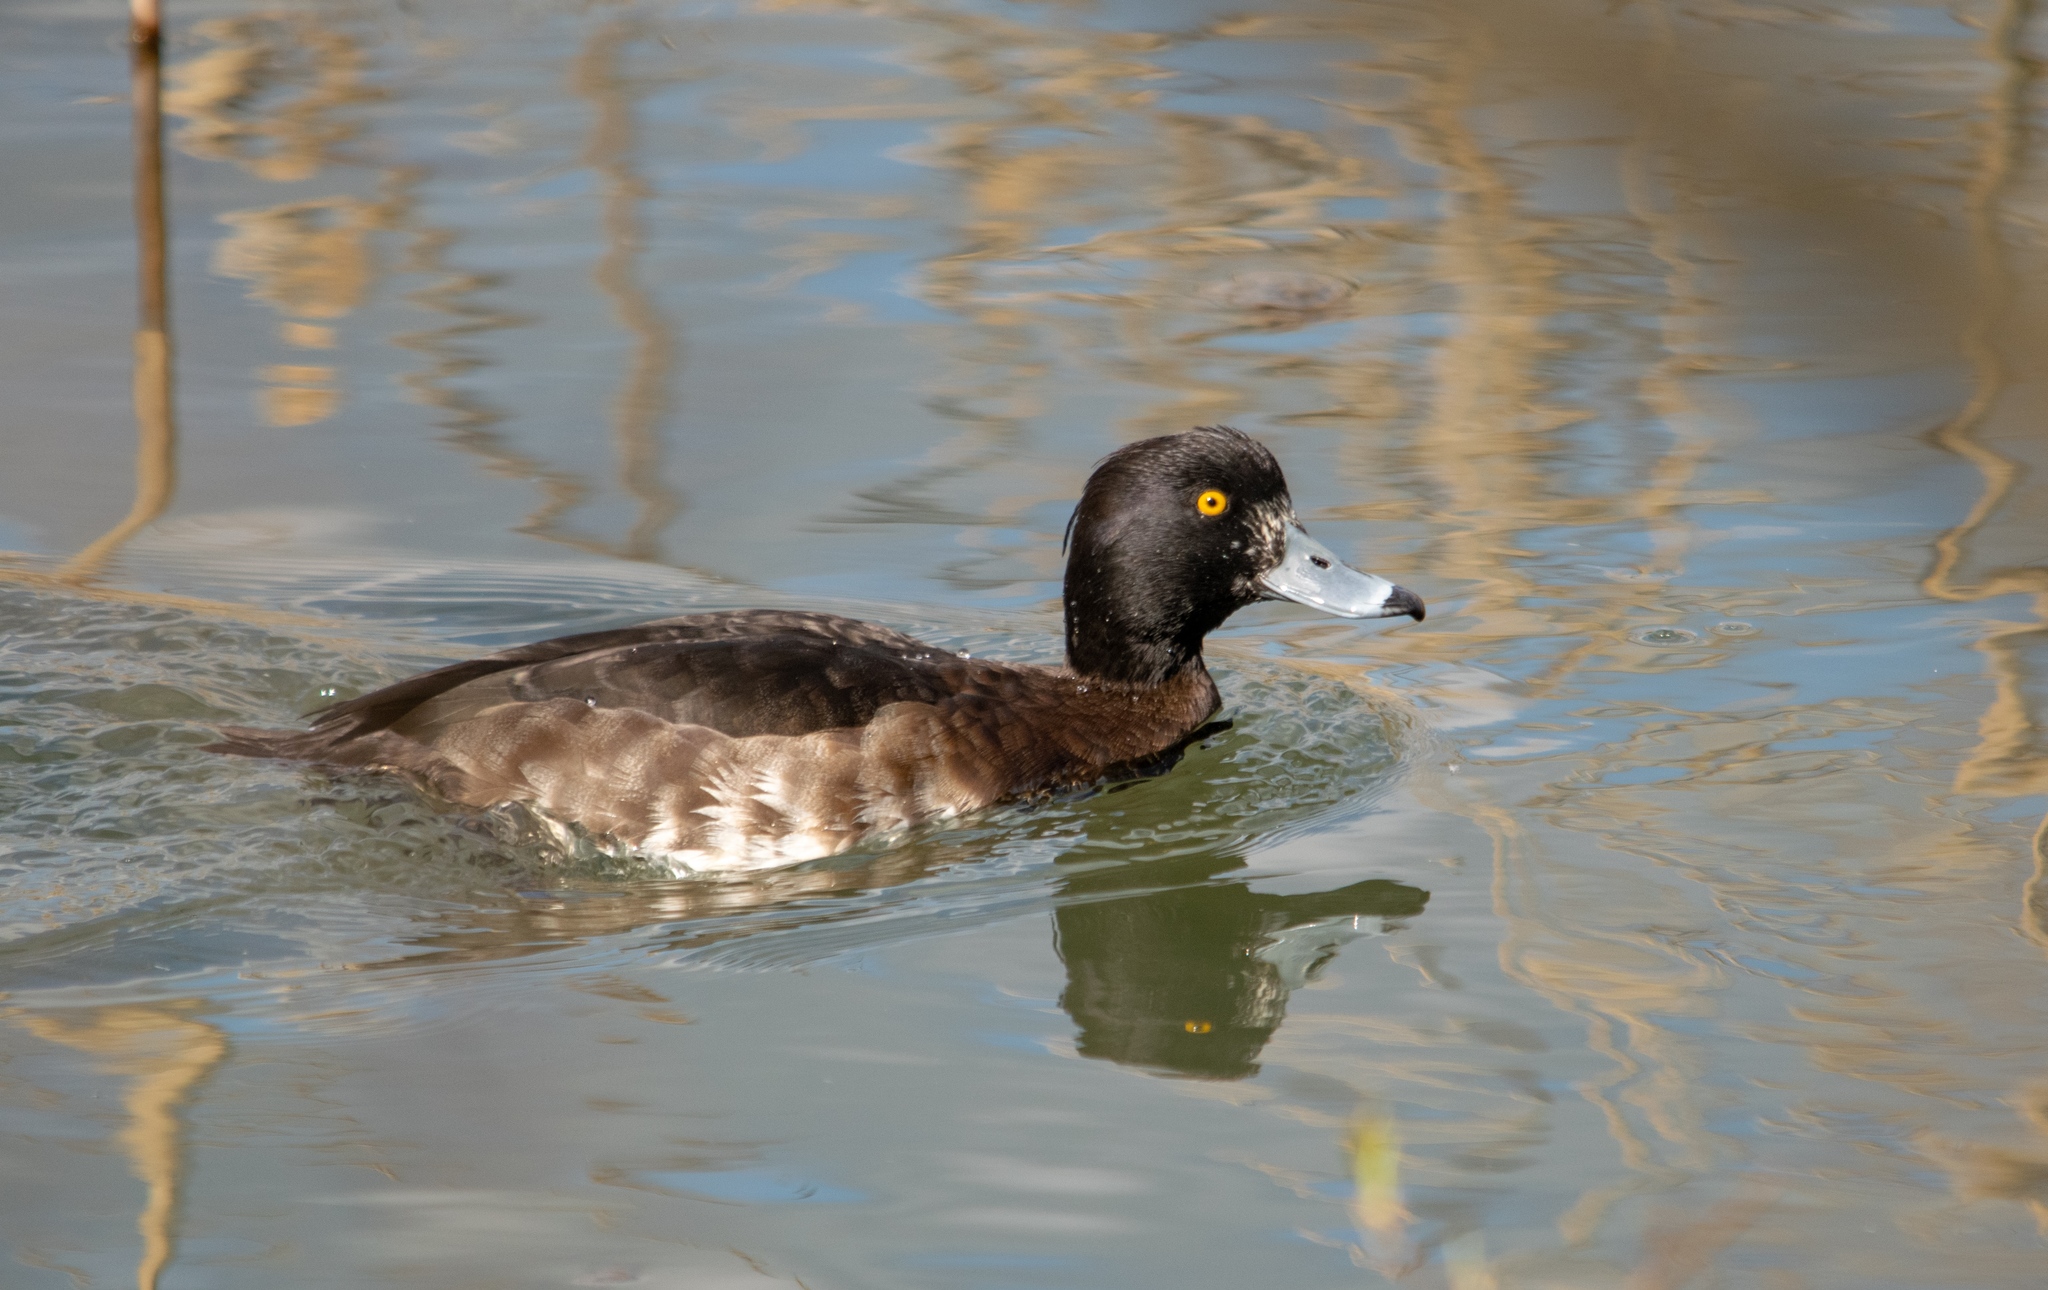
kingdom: Animalia
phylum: Chordata
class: Aves
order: Anseriformes
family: Anatidae
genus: Aythya
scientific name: Aythya fuligula
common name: Tufted duck
